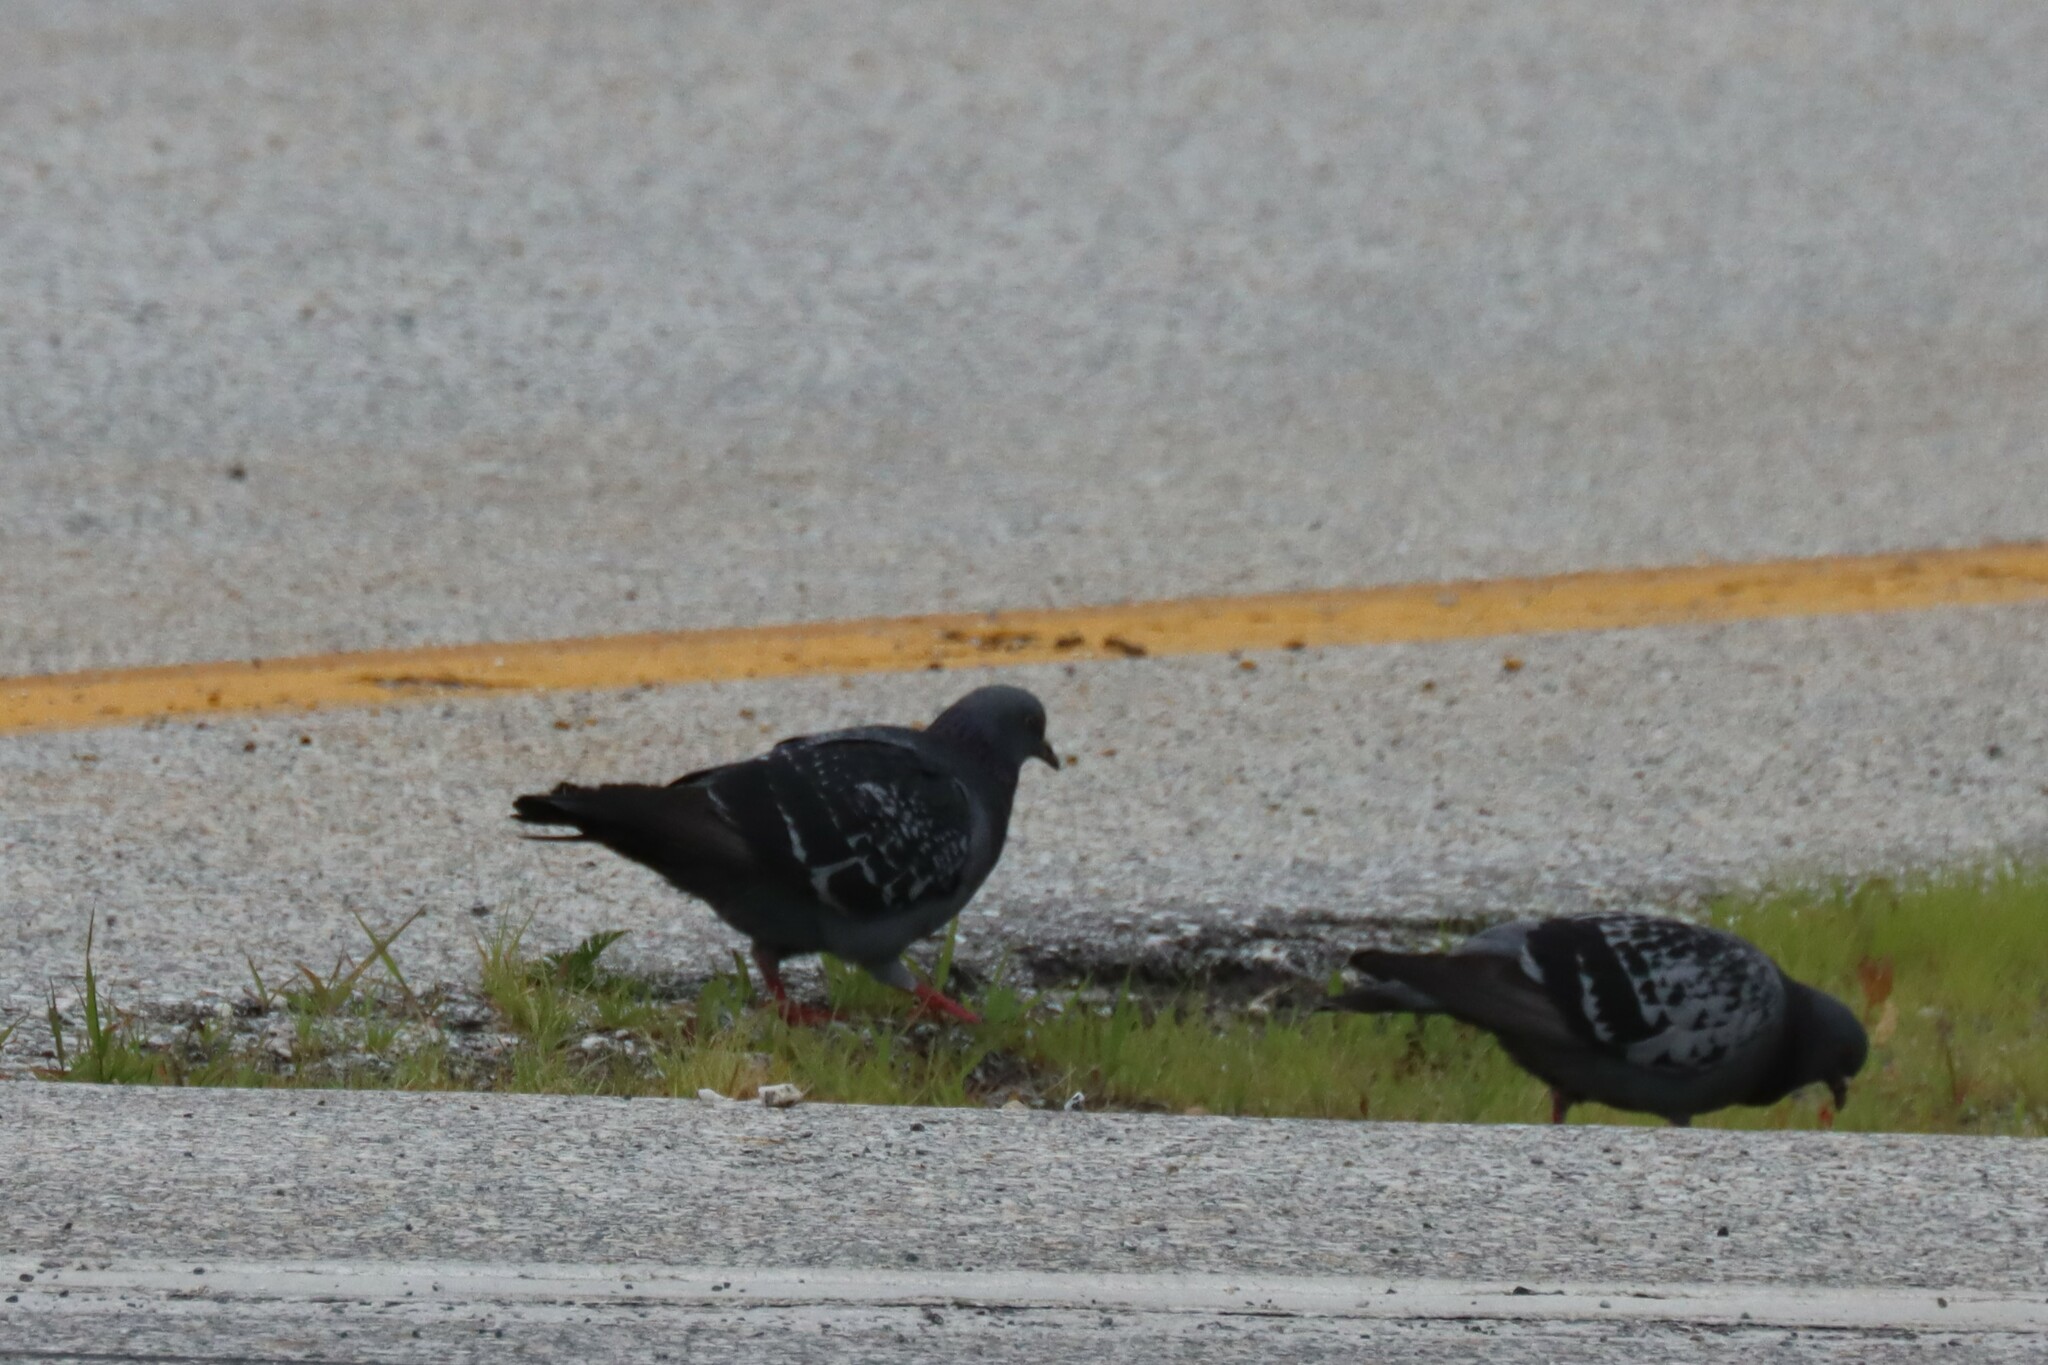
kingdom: Animalia
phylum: Chordata
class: Aves
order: Columbiformes
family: Columbidae
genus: Columba
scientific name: Columba livia
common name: Rock pigeon
